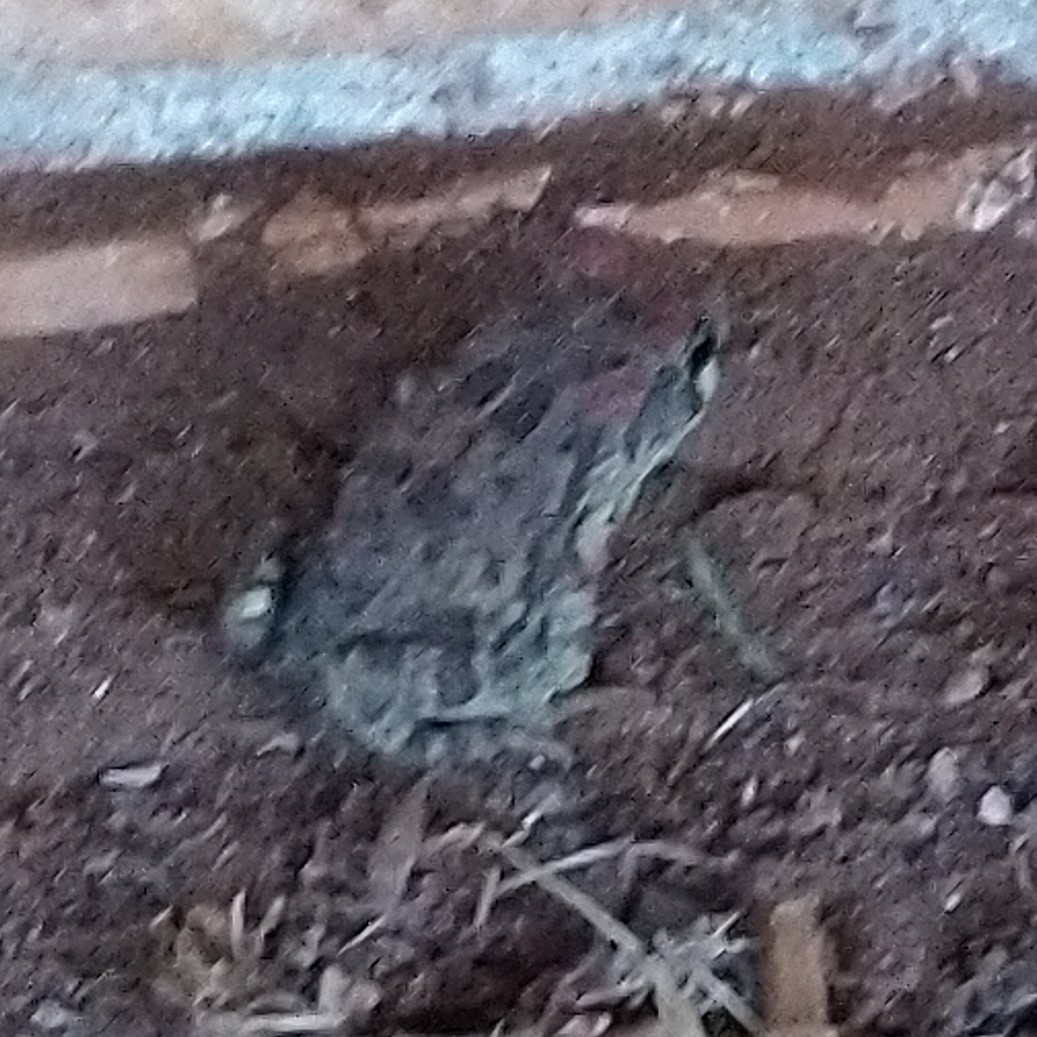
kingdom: Animalia
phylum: Chordata
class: Amphibia
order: Anura
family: Bufonidae
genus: Sclerophrys
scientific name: Sclerophrys capensis
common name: Ranger’s toad
